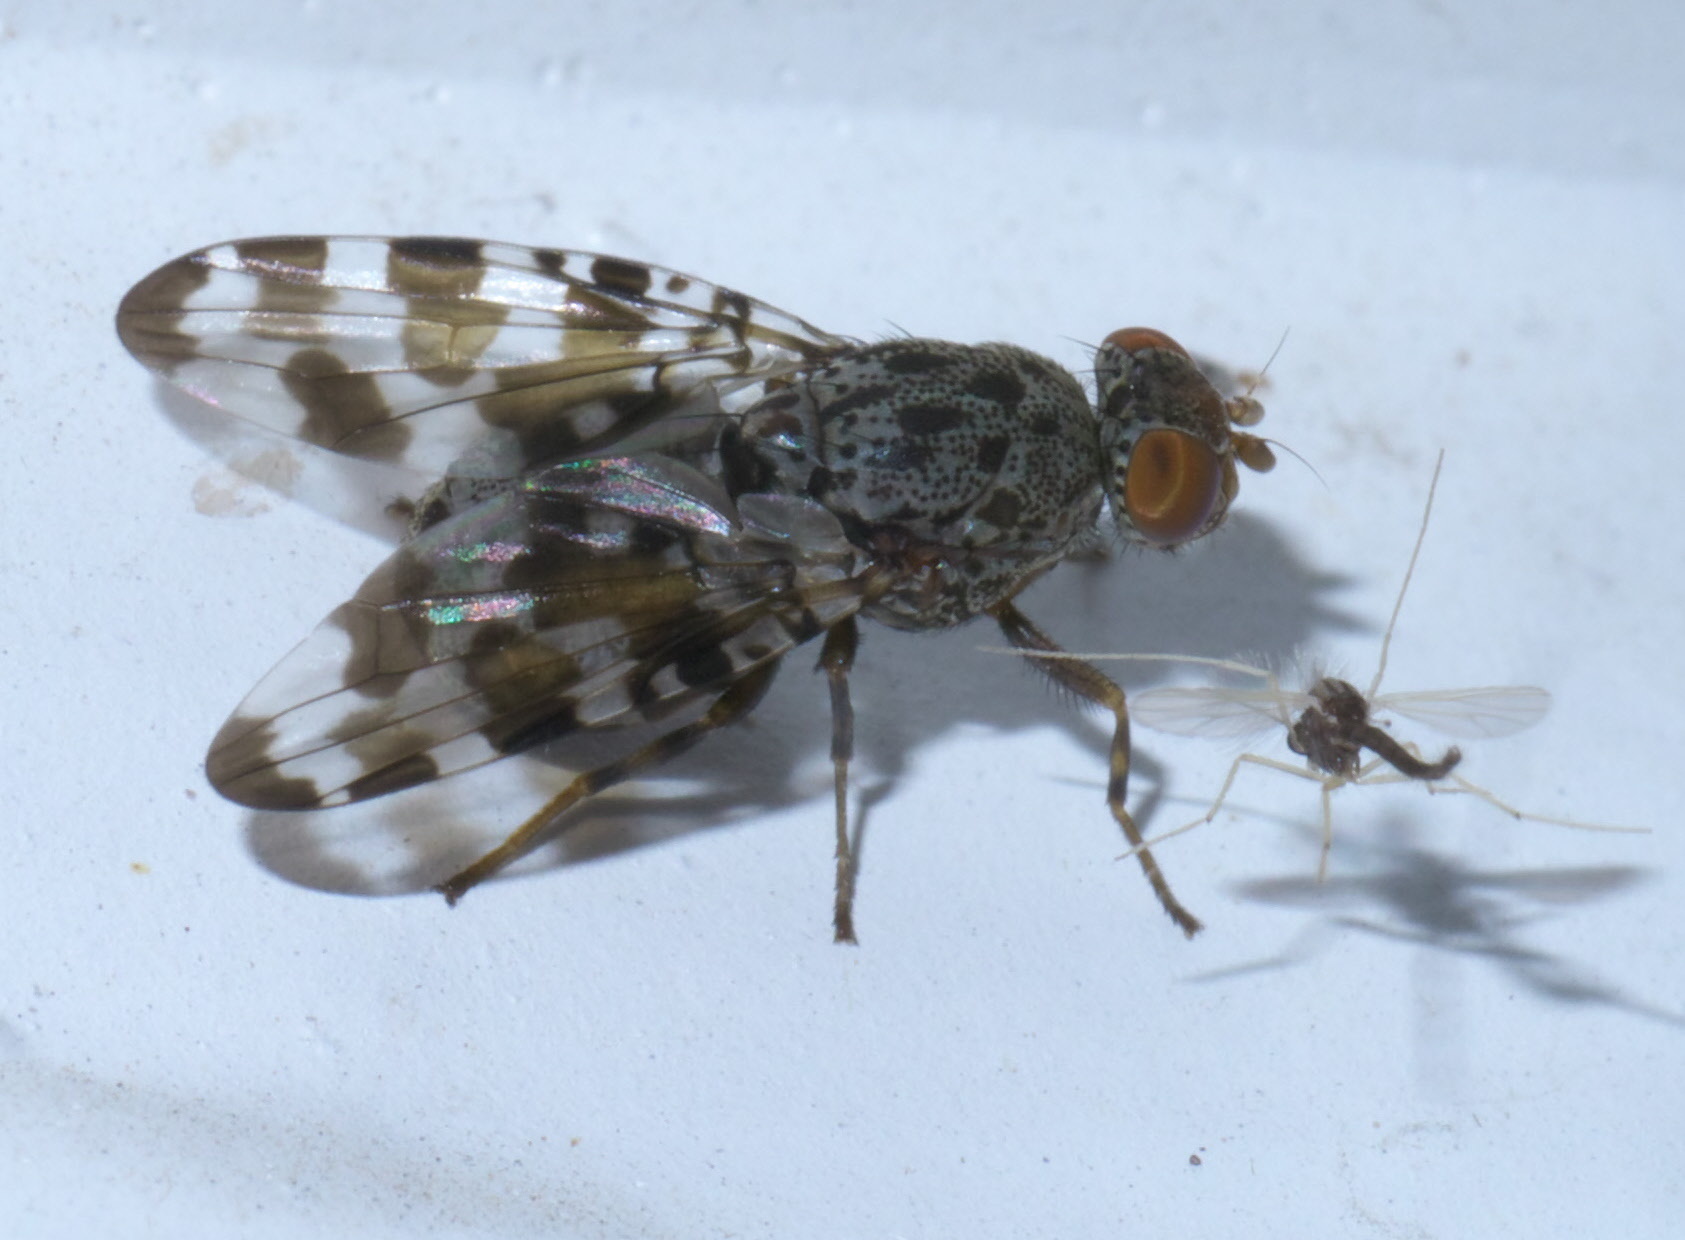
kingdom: Animalia
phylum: Arthropoda
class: Insecta
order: Diptera
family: Ulidiidae
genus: Pseudotephritis
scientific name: Pseudotephritis approximata
